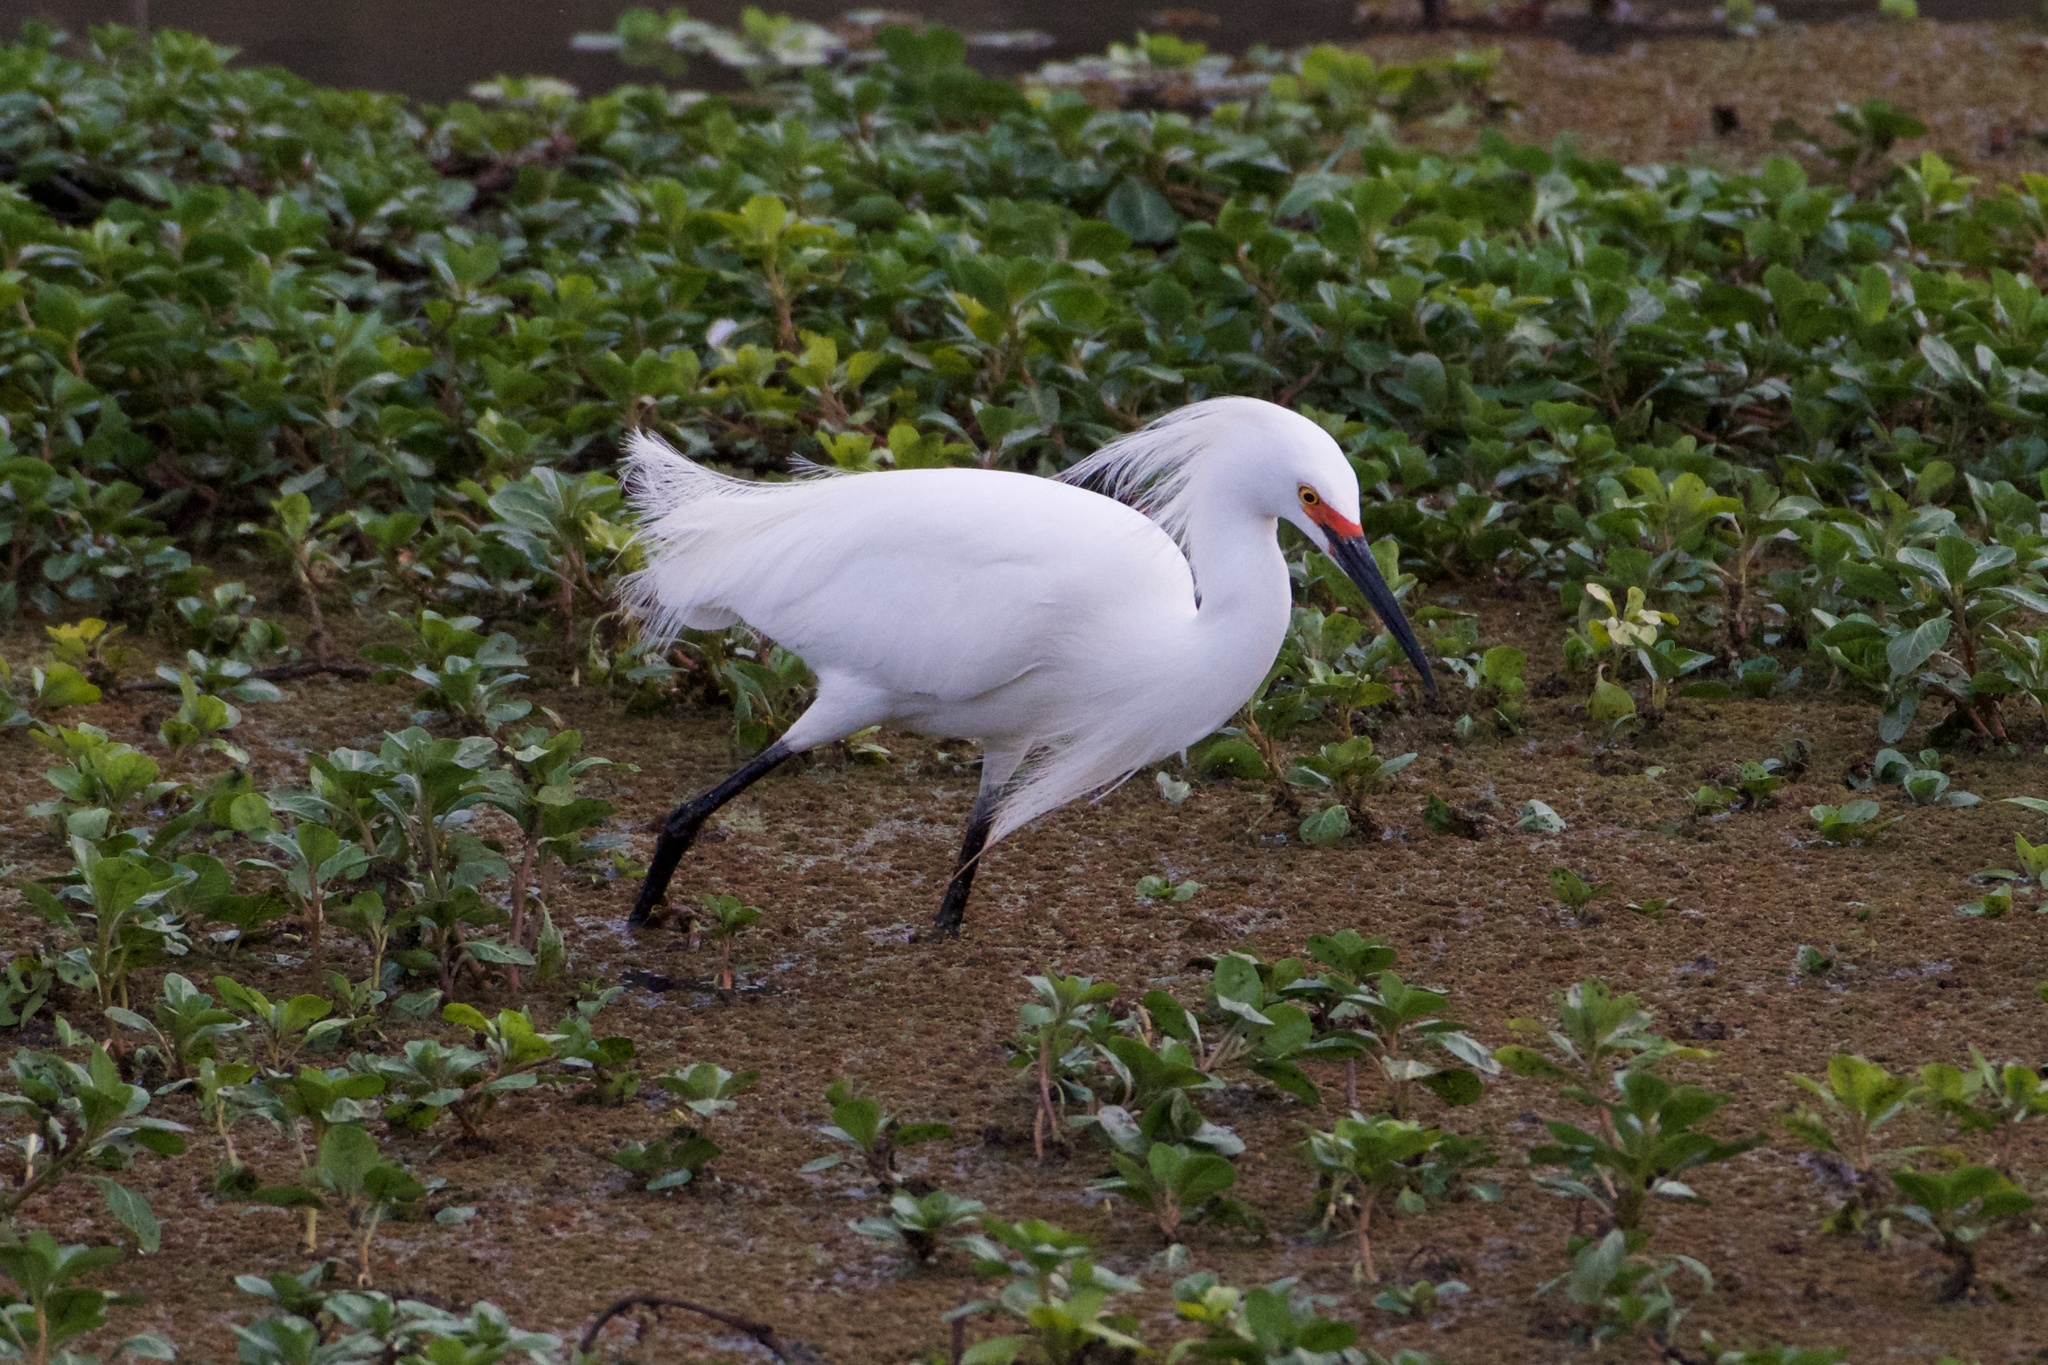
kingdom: Animalia
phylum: Chordata
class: Aves
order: Pelecaniformes
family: Ardeidae
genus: Egretta
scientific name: Egretta thula
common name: Snowy egret
